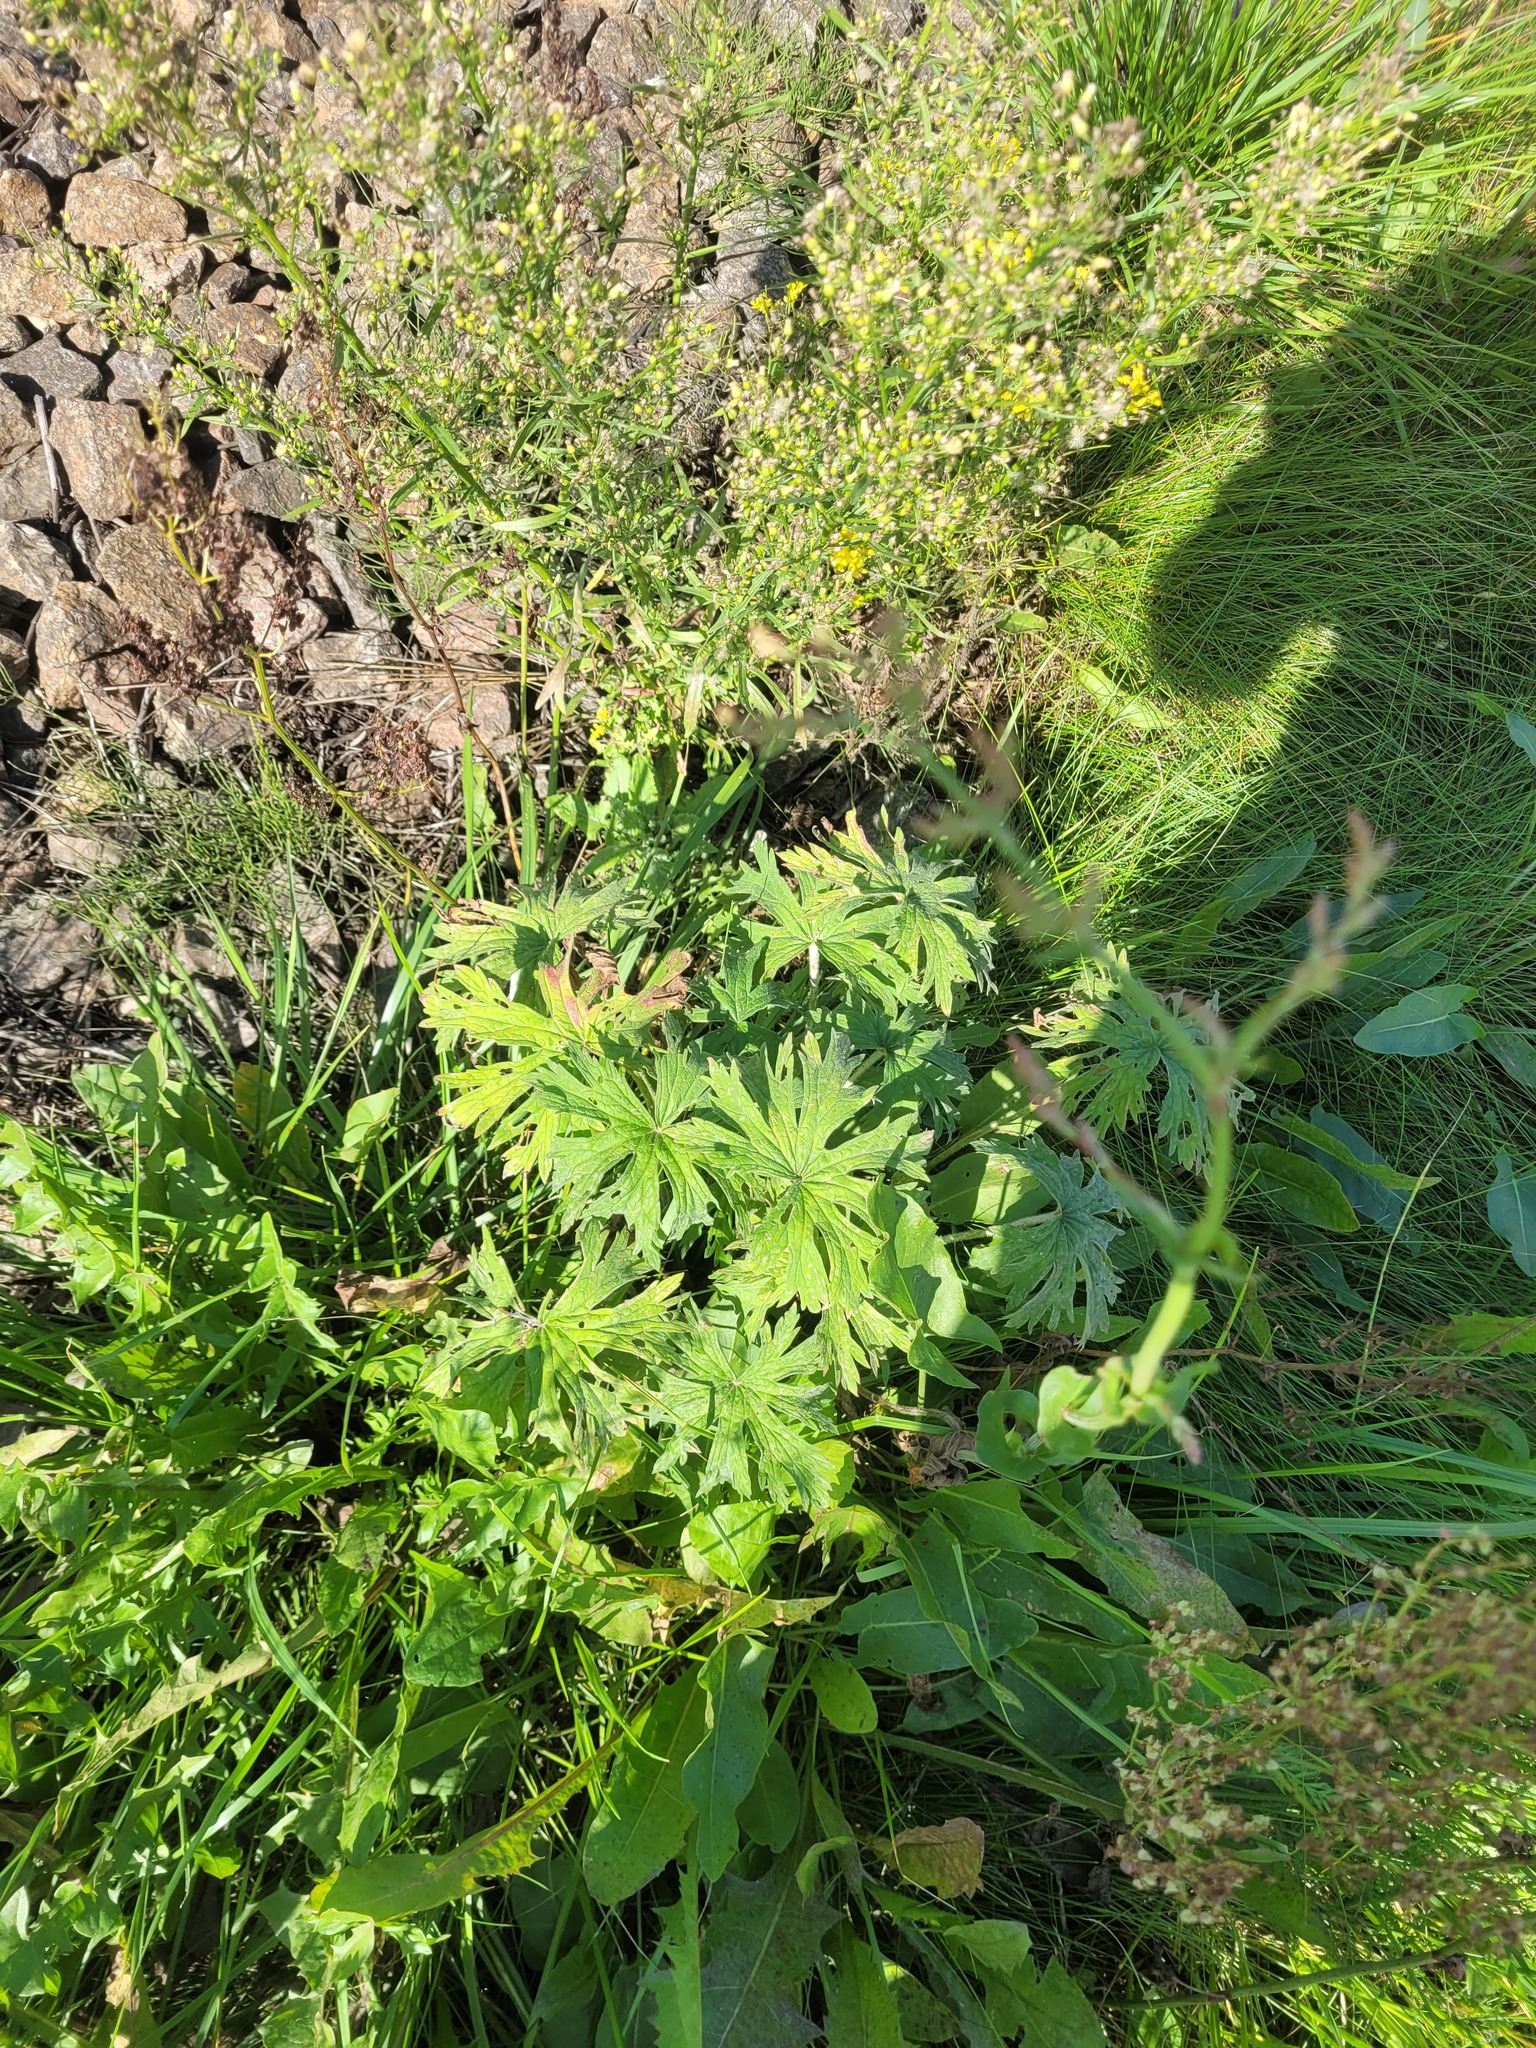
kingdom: Plantae
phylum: Tracheophyta
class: Magnoliopsida
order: Geraniales
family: Geraniaceae
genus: Geranium
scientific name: Geranium pratense
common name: Meadow crane's-bill
